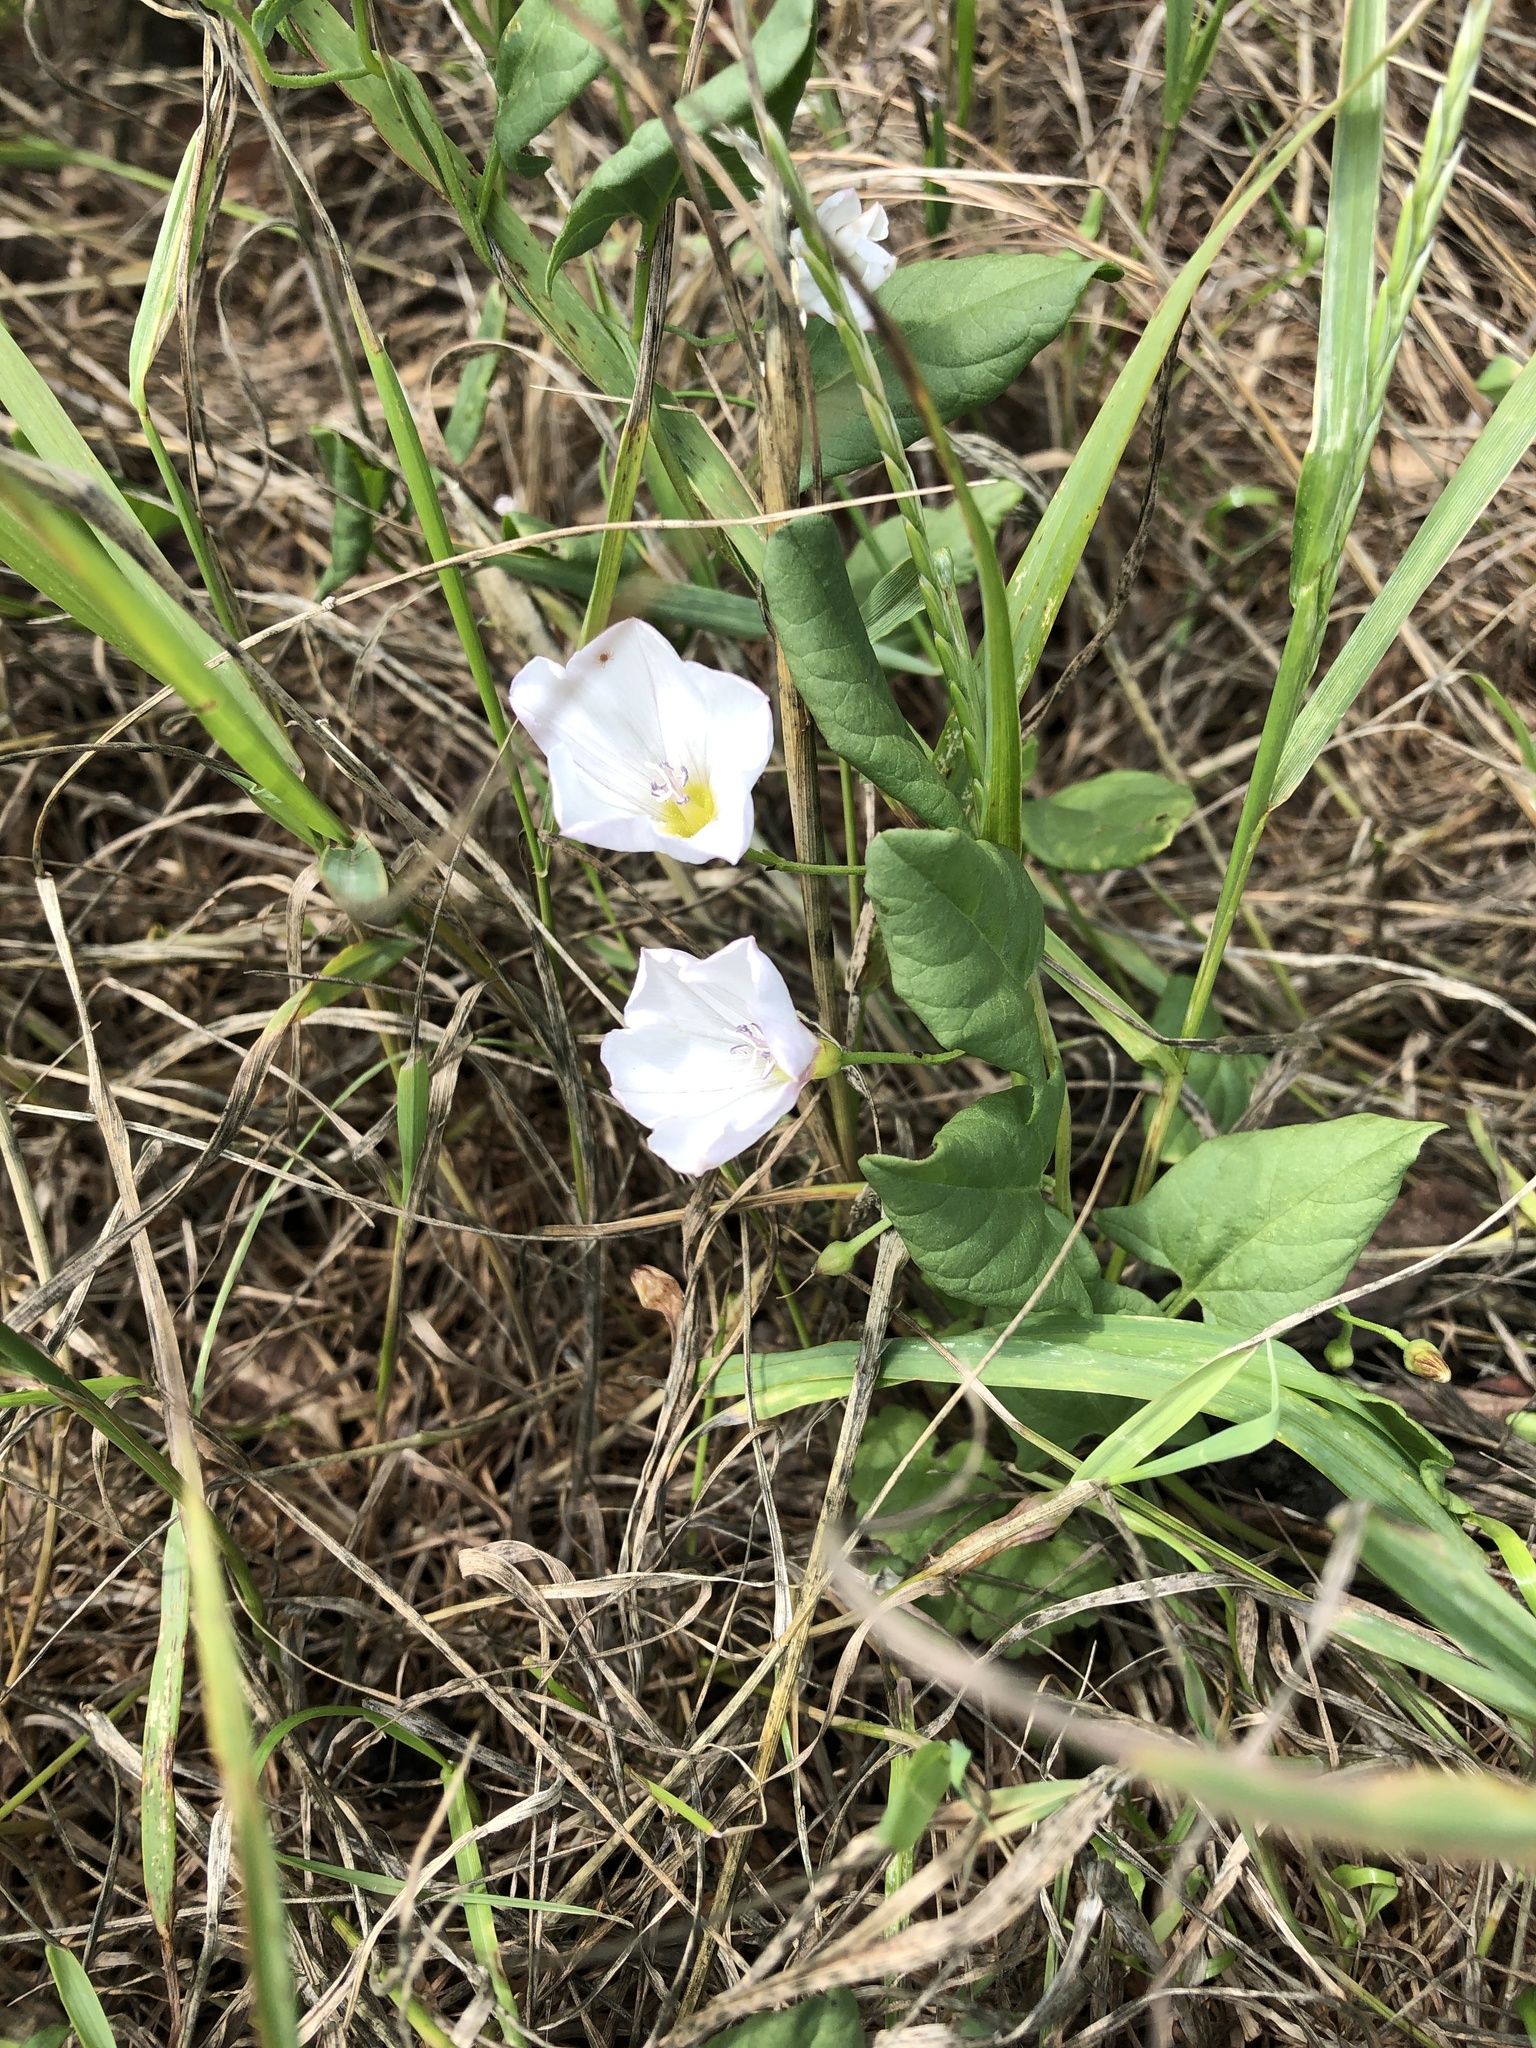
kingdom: Plantae
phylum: Tracheophyta
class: Magnoliopsida
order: Solanales
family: Convolvulaceae
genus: Convolvulus
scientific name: Convolvulus arvensis
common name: Field bindweed
